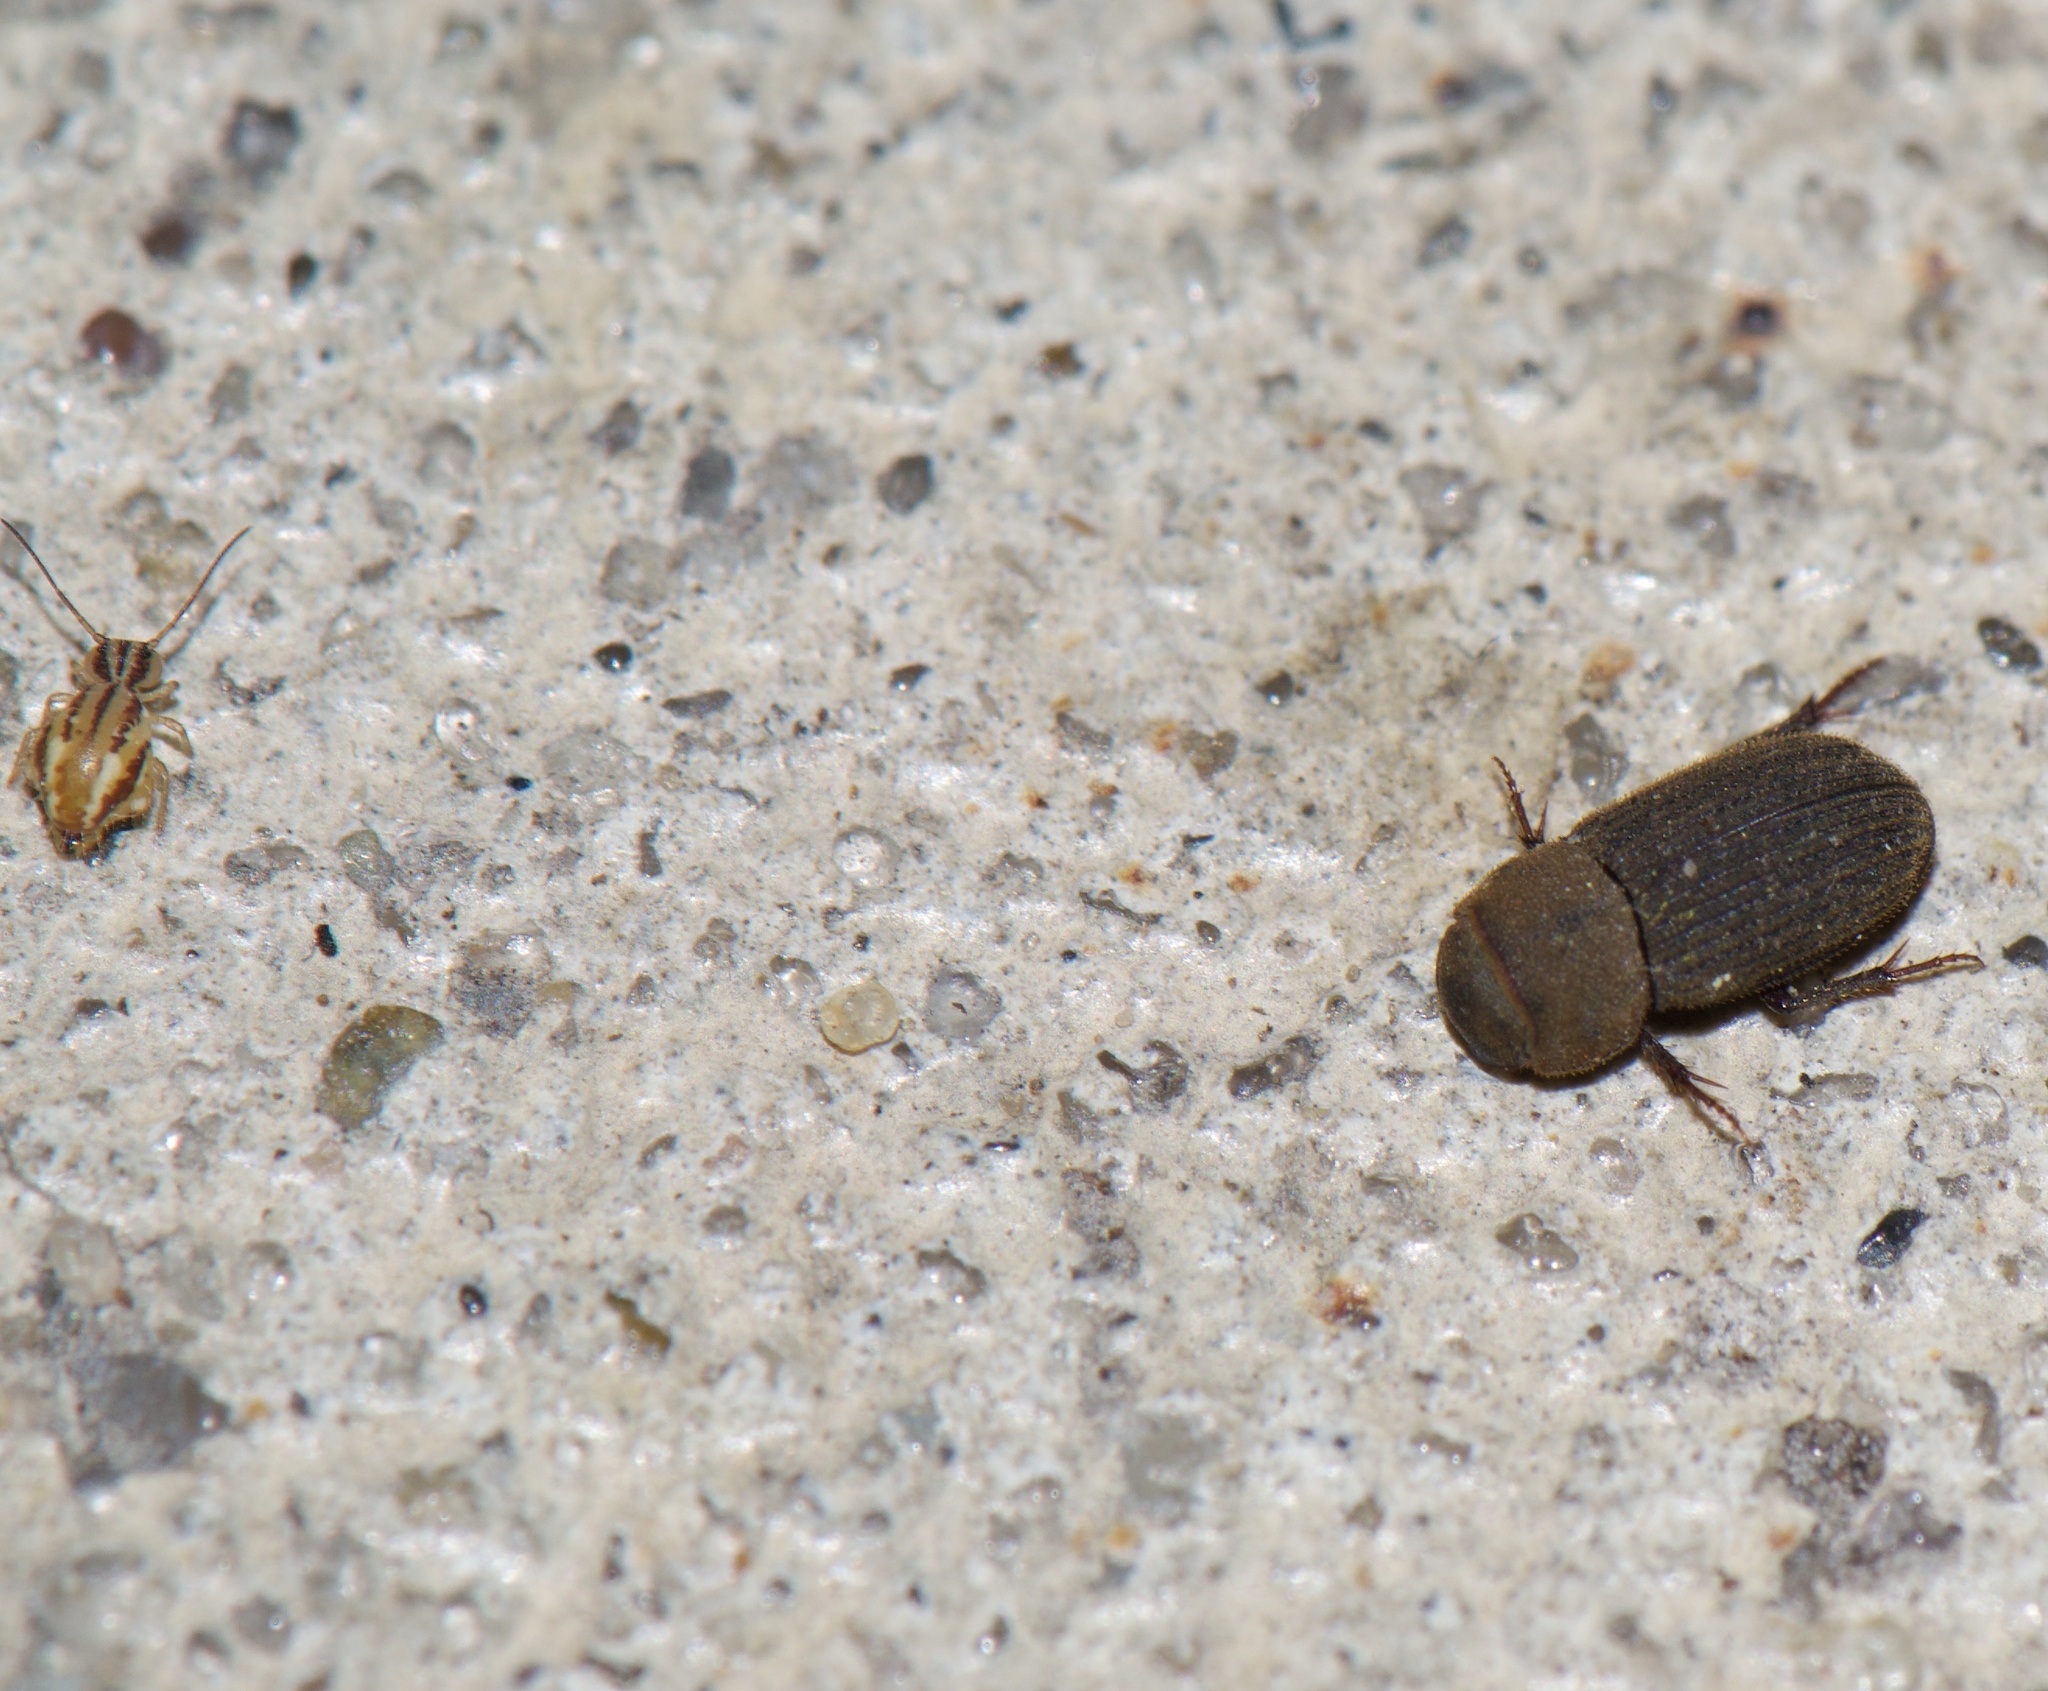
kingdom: Animalia
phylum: Arthropoda
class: Collembola
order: Symphypleona
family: Sminthuridae
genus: Sminthurus
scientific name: Sminthurus mencenbergae
